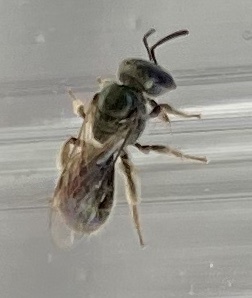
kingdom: Animalia
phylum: Arthropoda
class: Insecta
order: Hymenoptera
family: Halictidae
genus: Dialictus
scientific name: Dialictus
